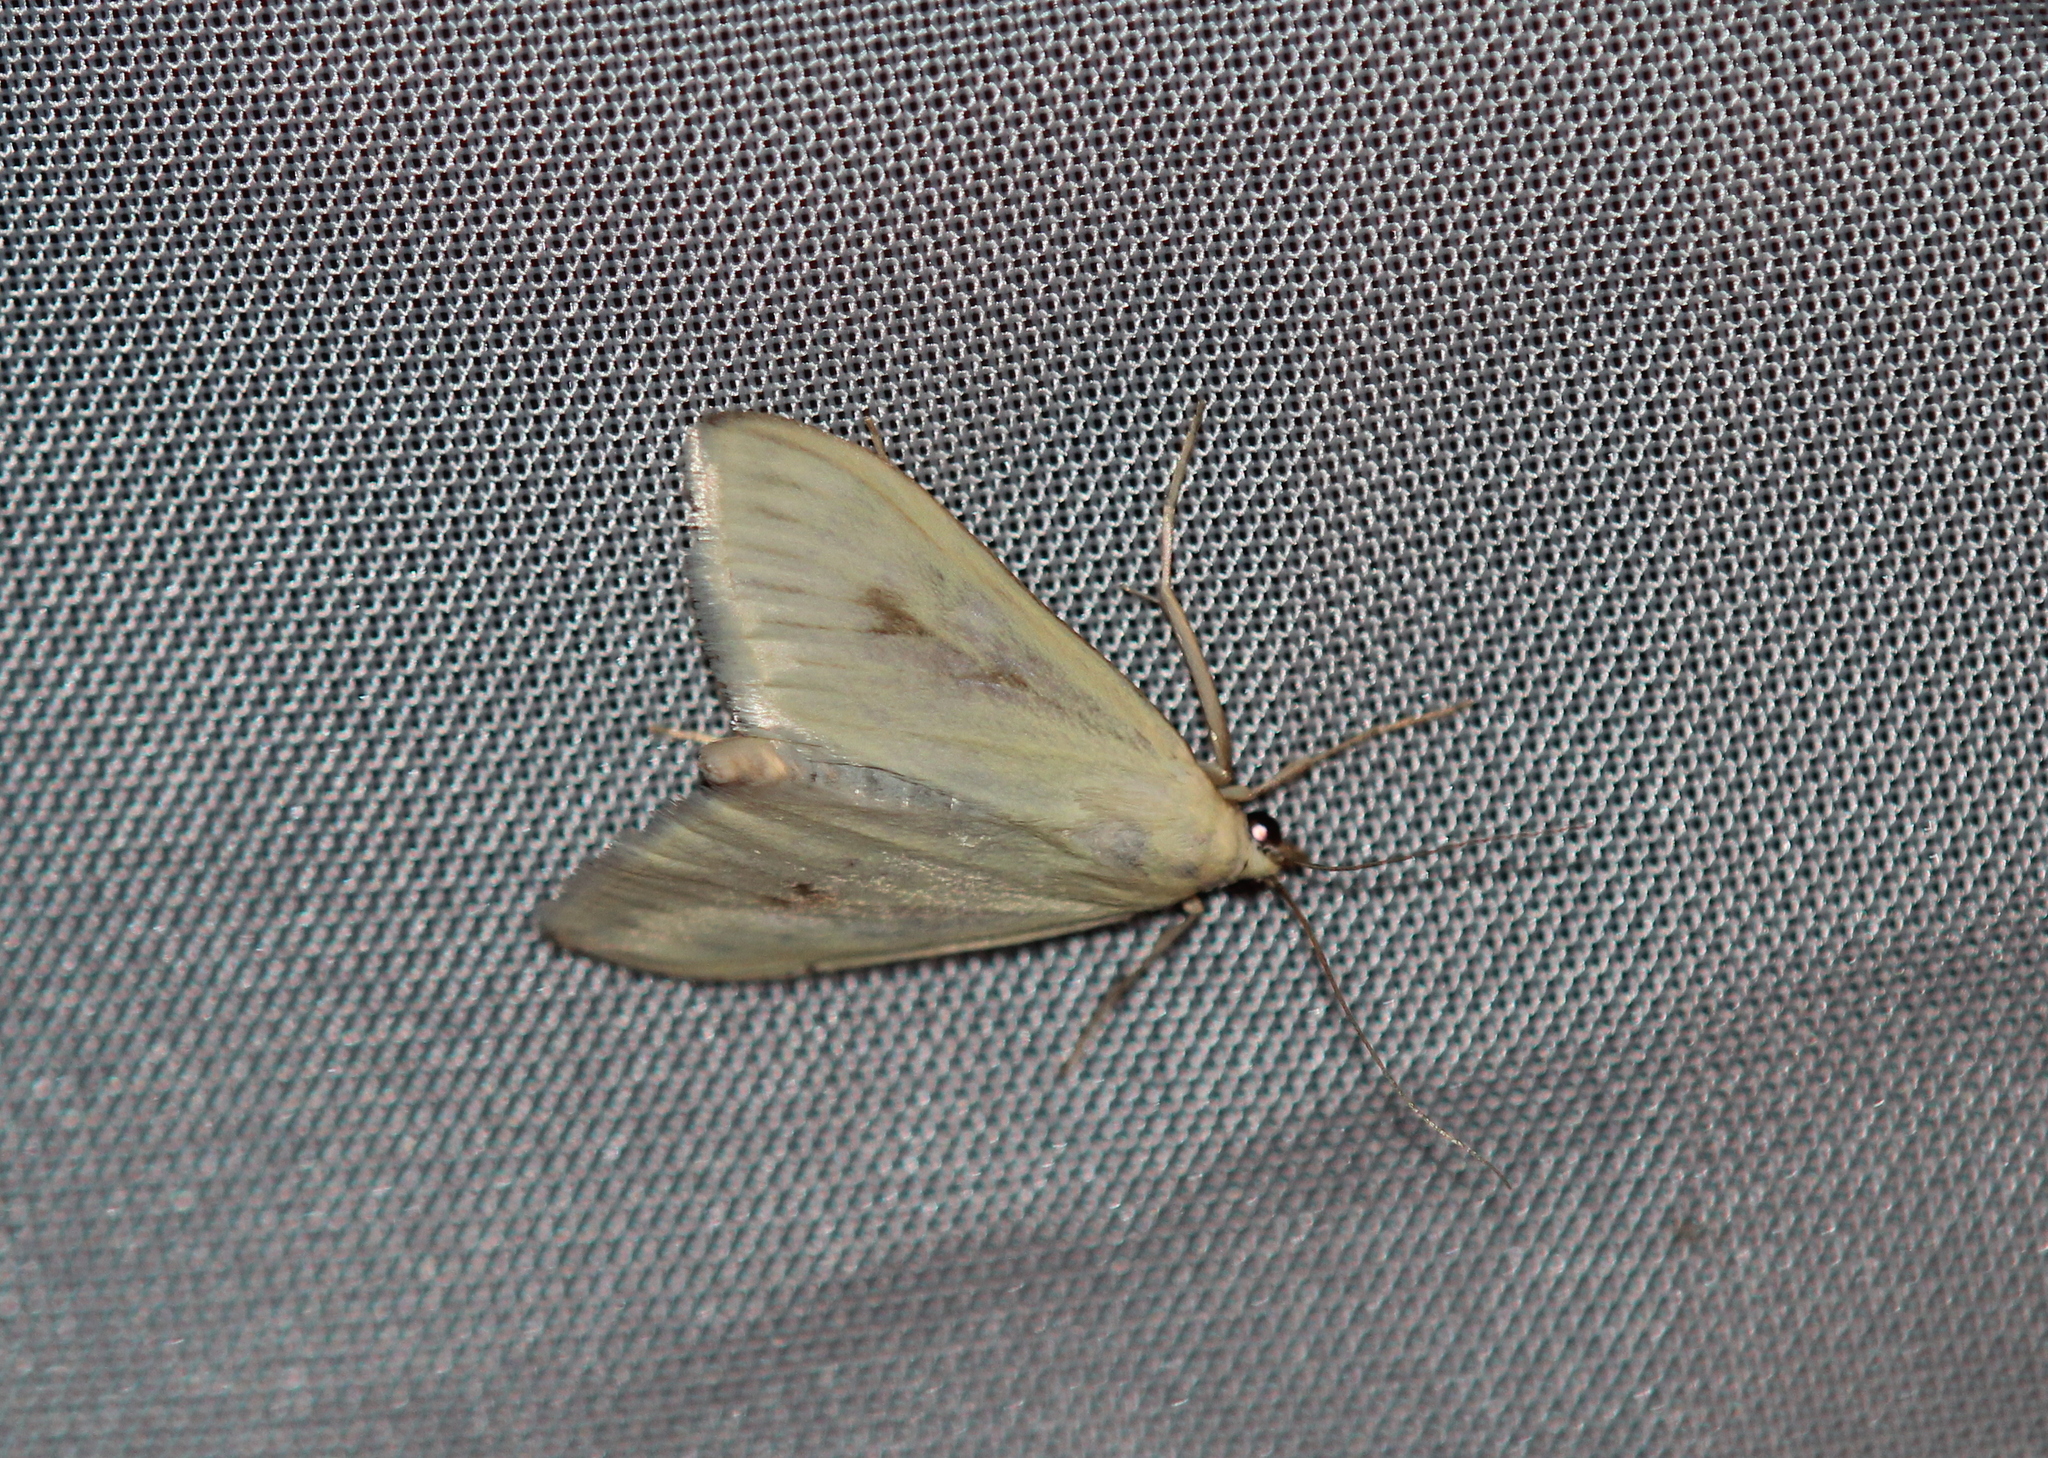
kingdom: Animalia
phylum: Arthropoda
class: Insecta
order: Lepidoptera
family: Crambidae
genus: Sitochroa
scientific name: Sitochroa palealis
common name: Greenish-yellow sitochroa moth
